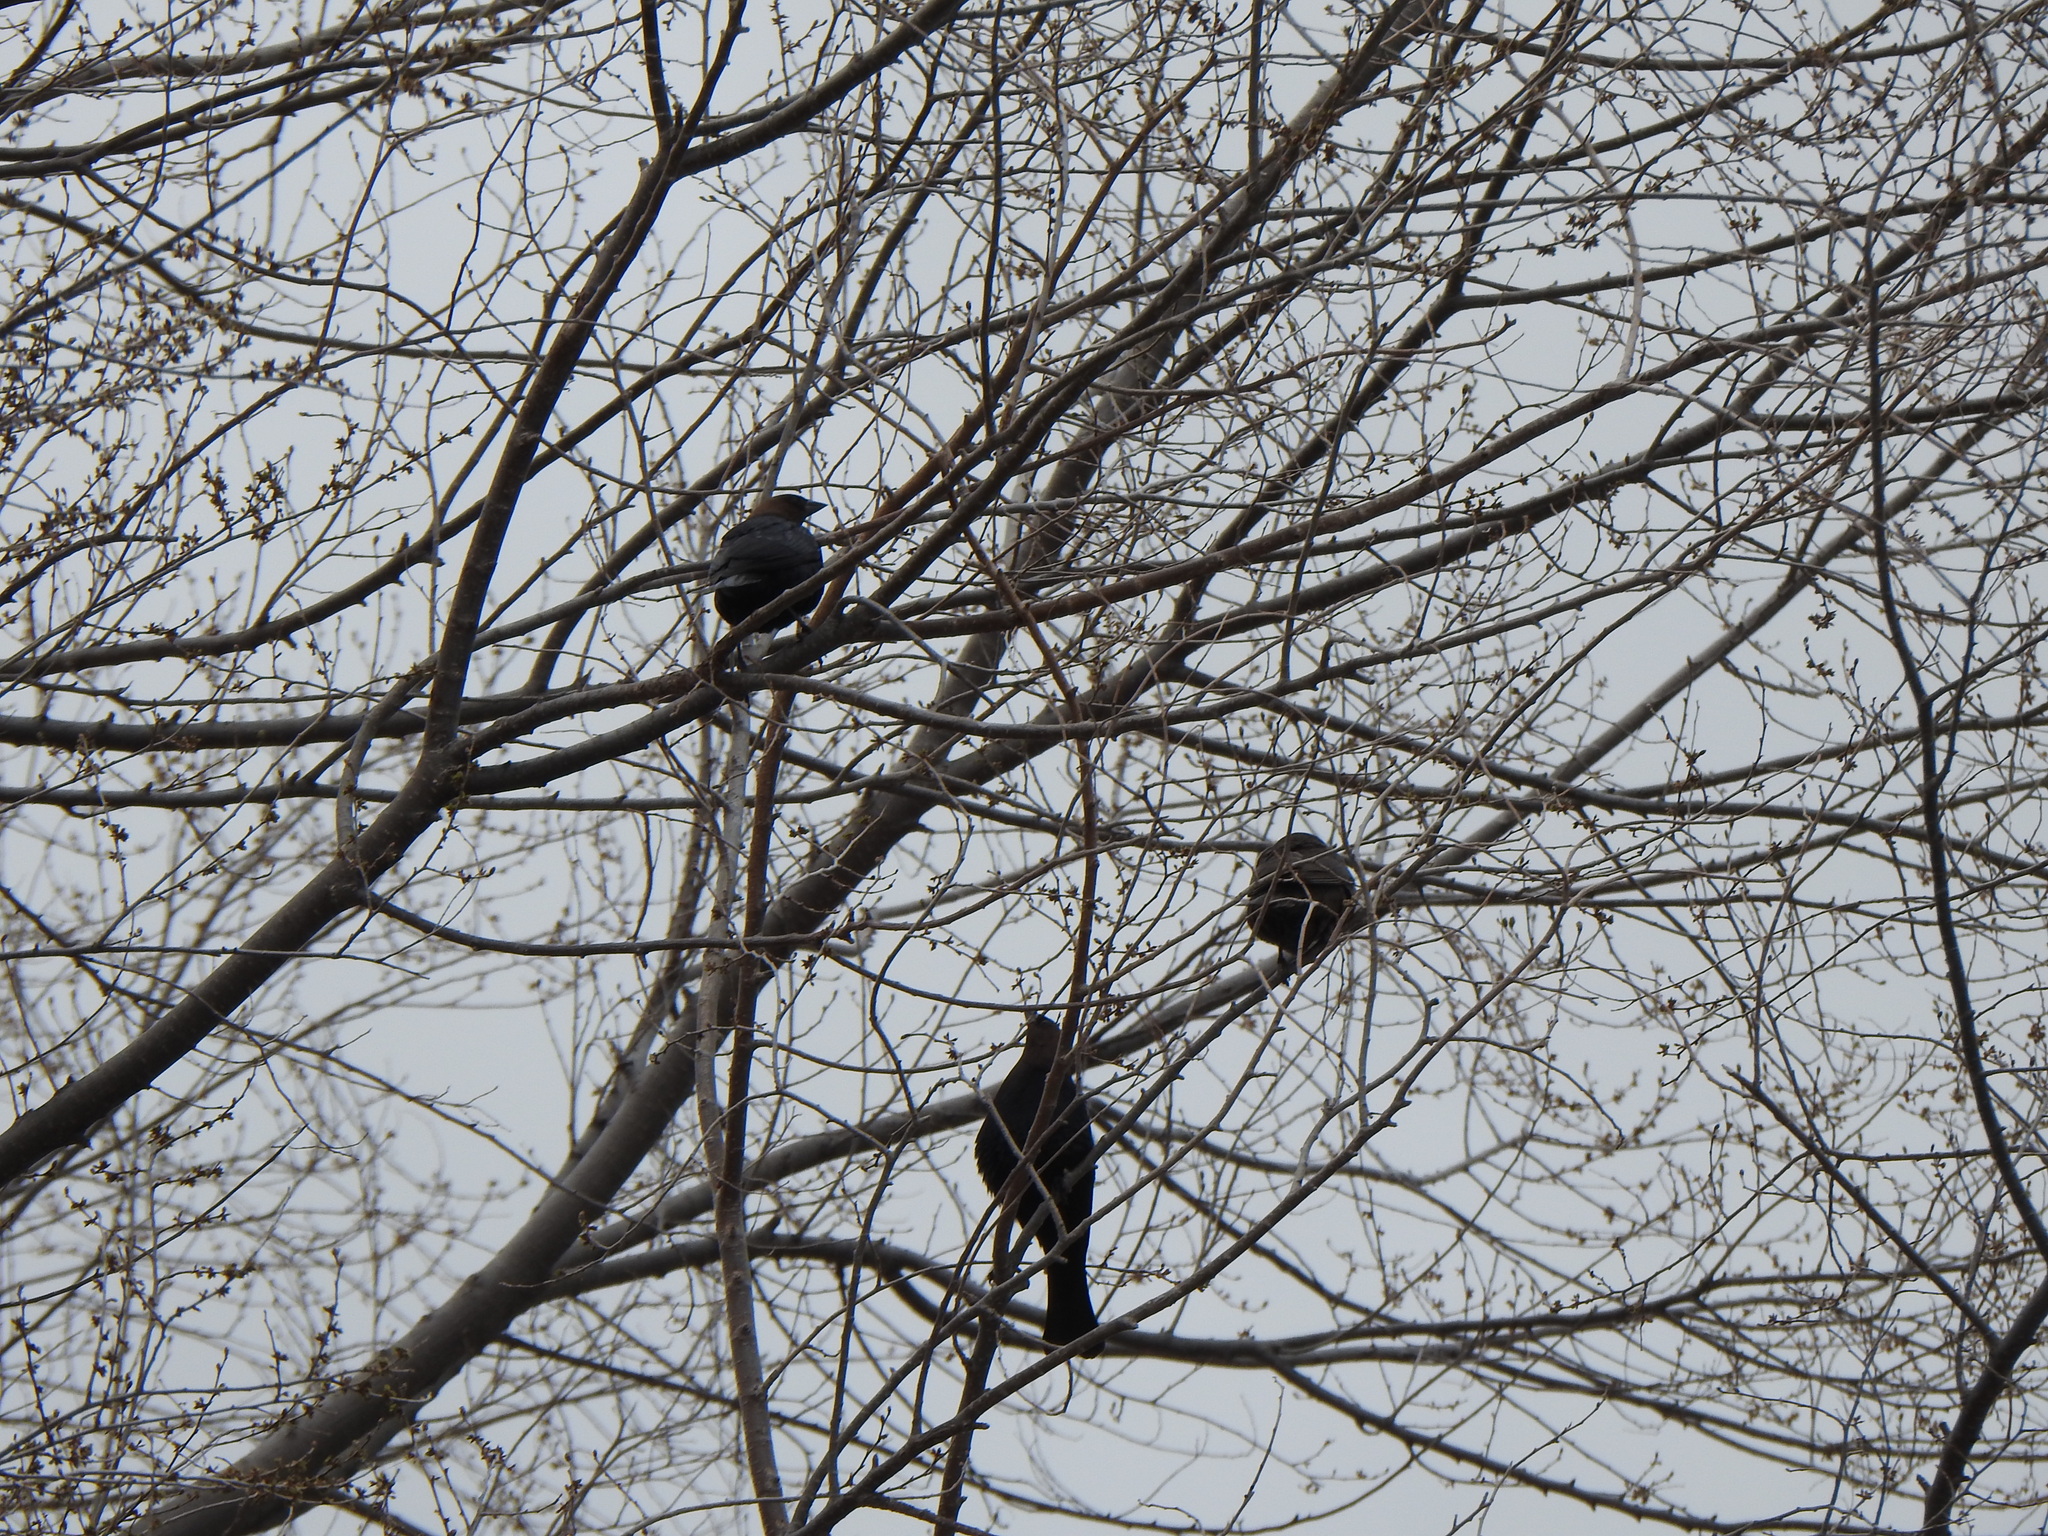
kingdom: Animalia
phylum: Chordata
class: Aves
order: Passeriformes
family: Icteridae
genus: Molothrus
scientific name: Molothrus ater
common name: Brown-headed cowbird
